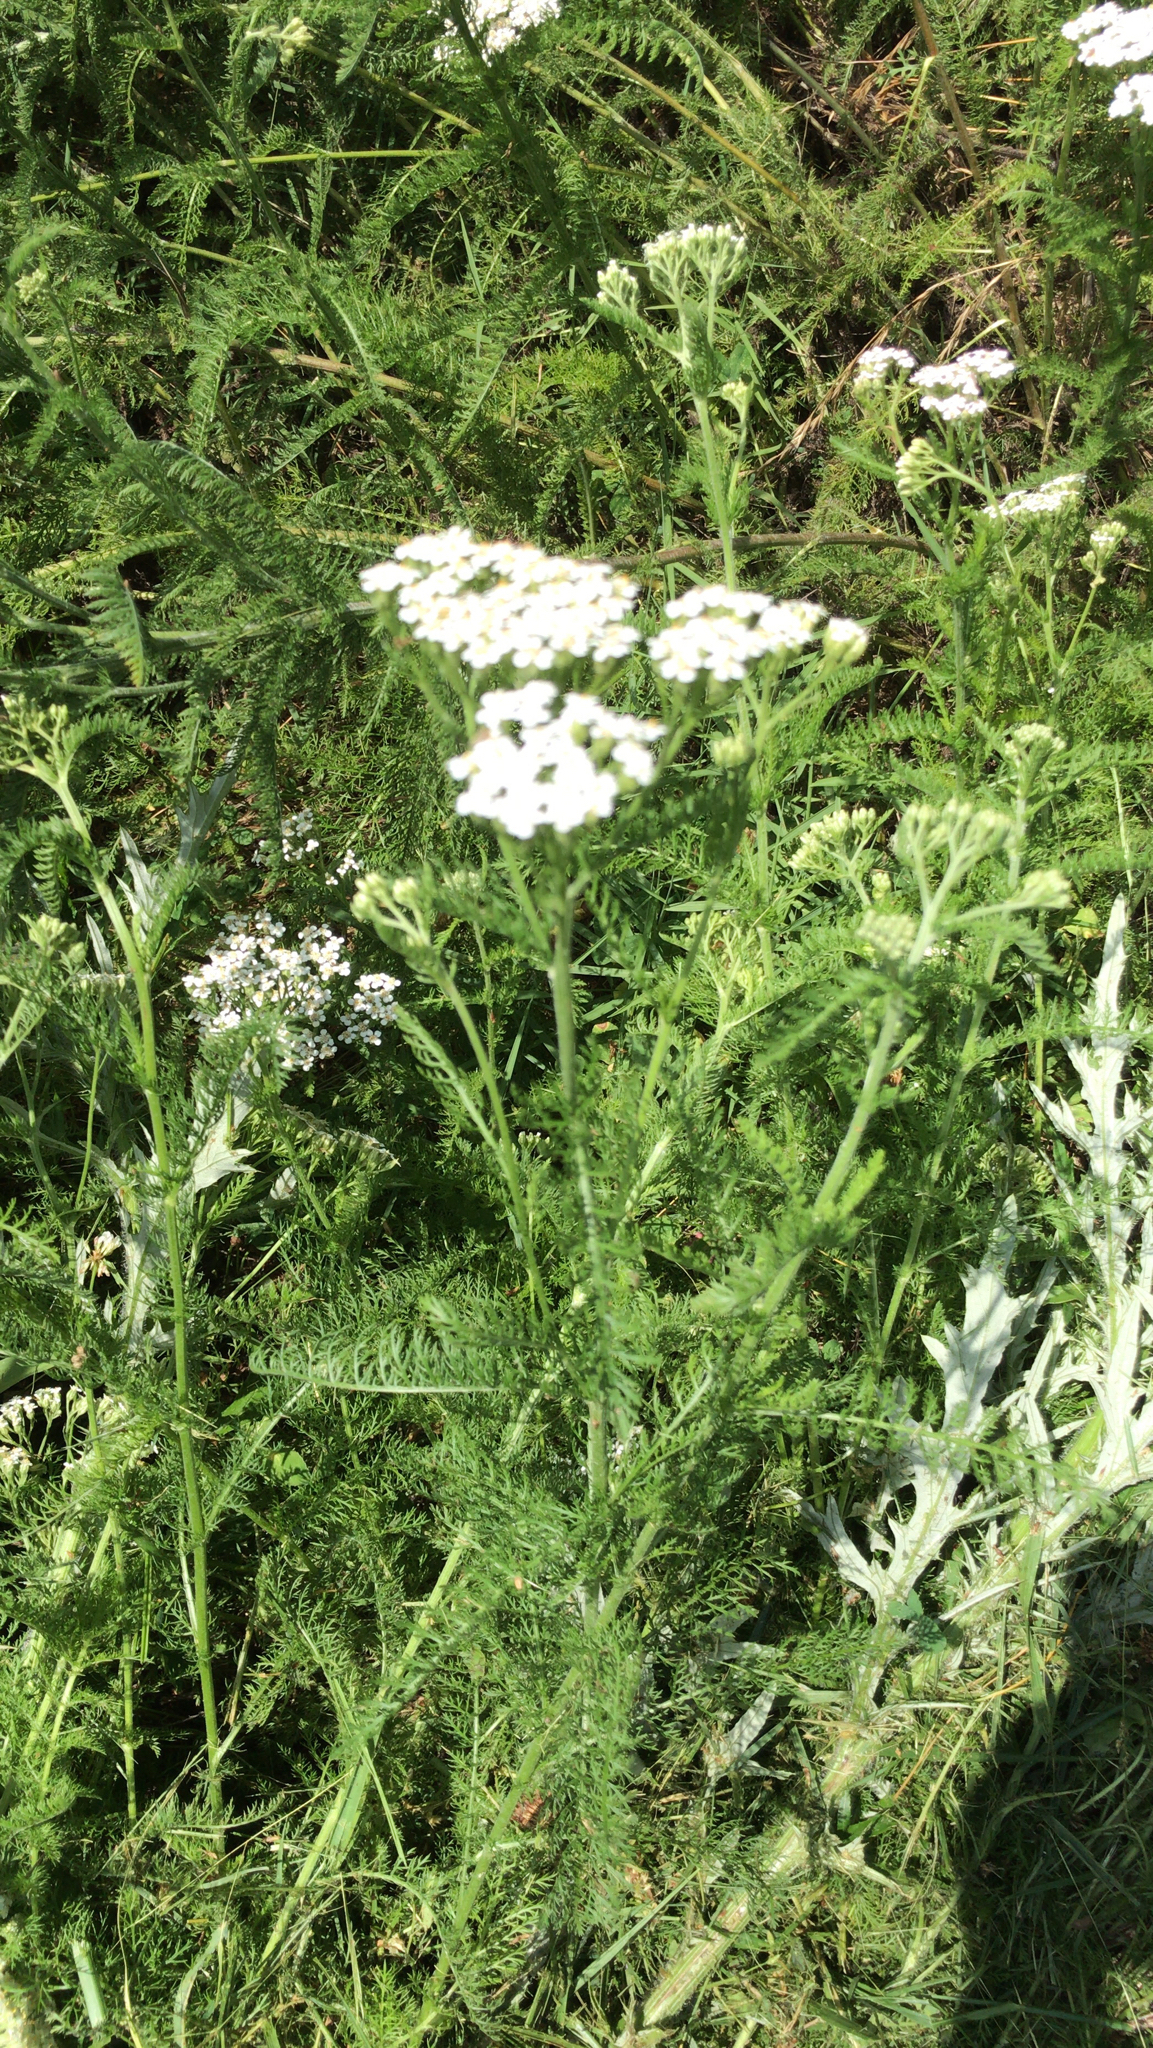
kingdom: Plantae
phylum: Tracheophyta
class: Magnoliopsida
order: Asterales
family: Asteraceae
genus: Achillea
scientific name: Achillea millefolium
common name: Yarrow
